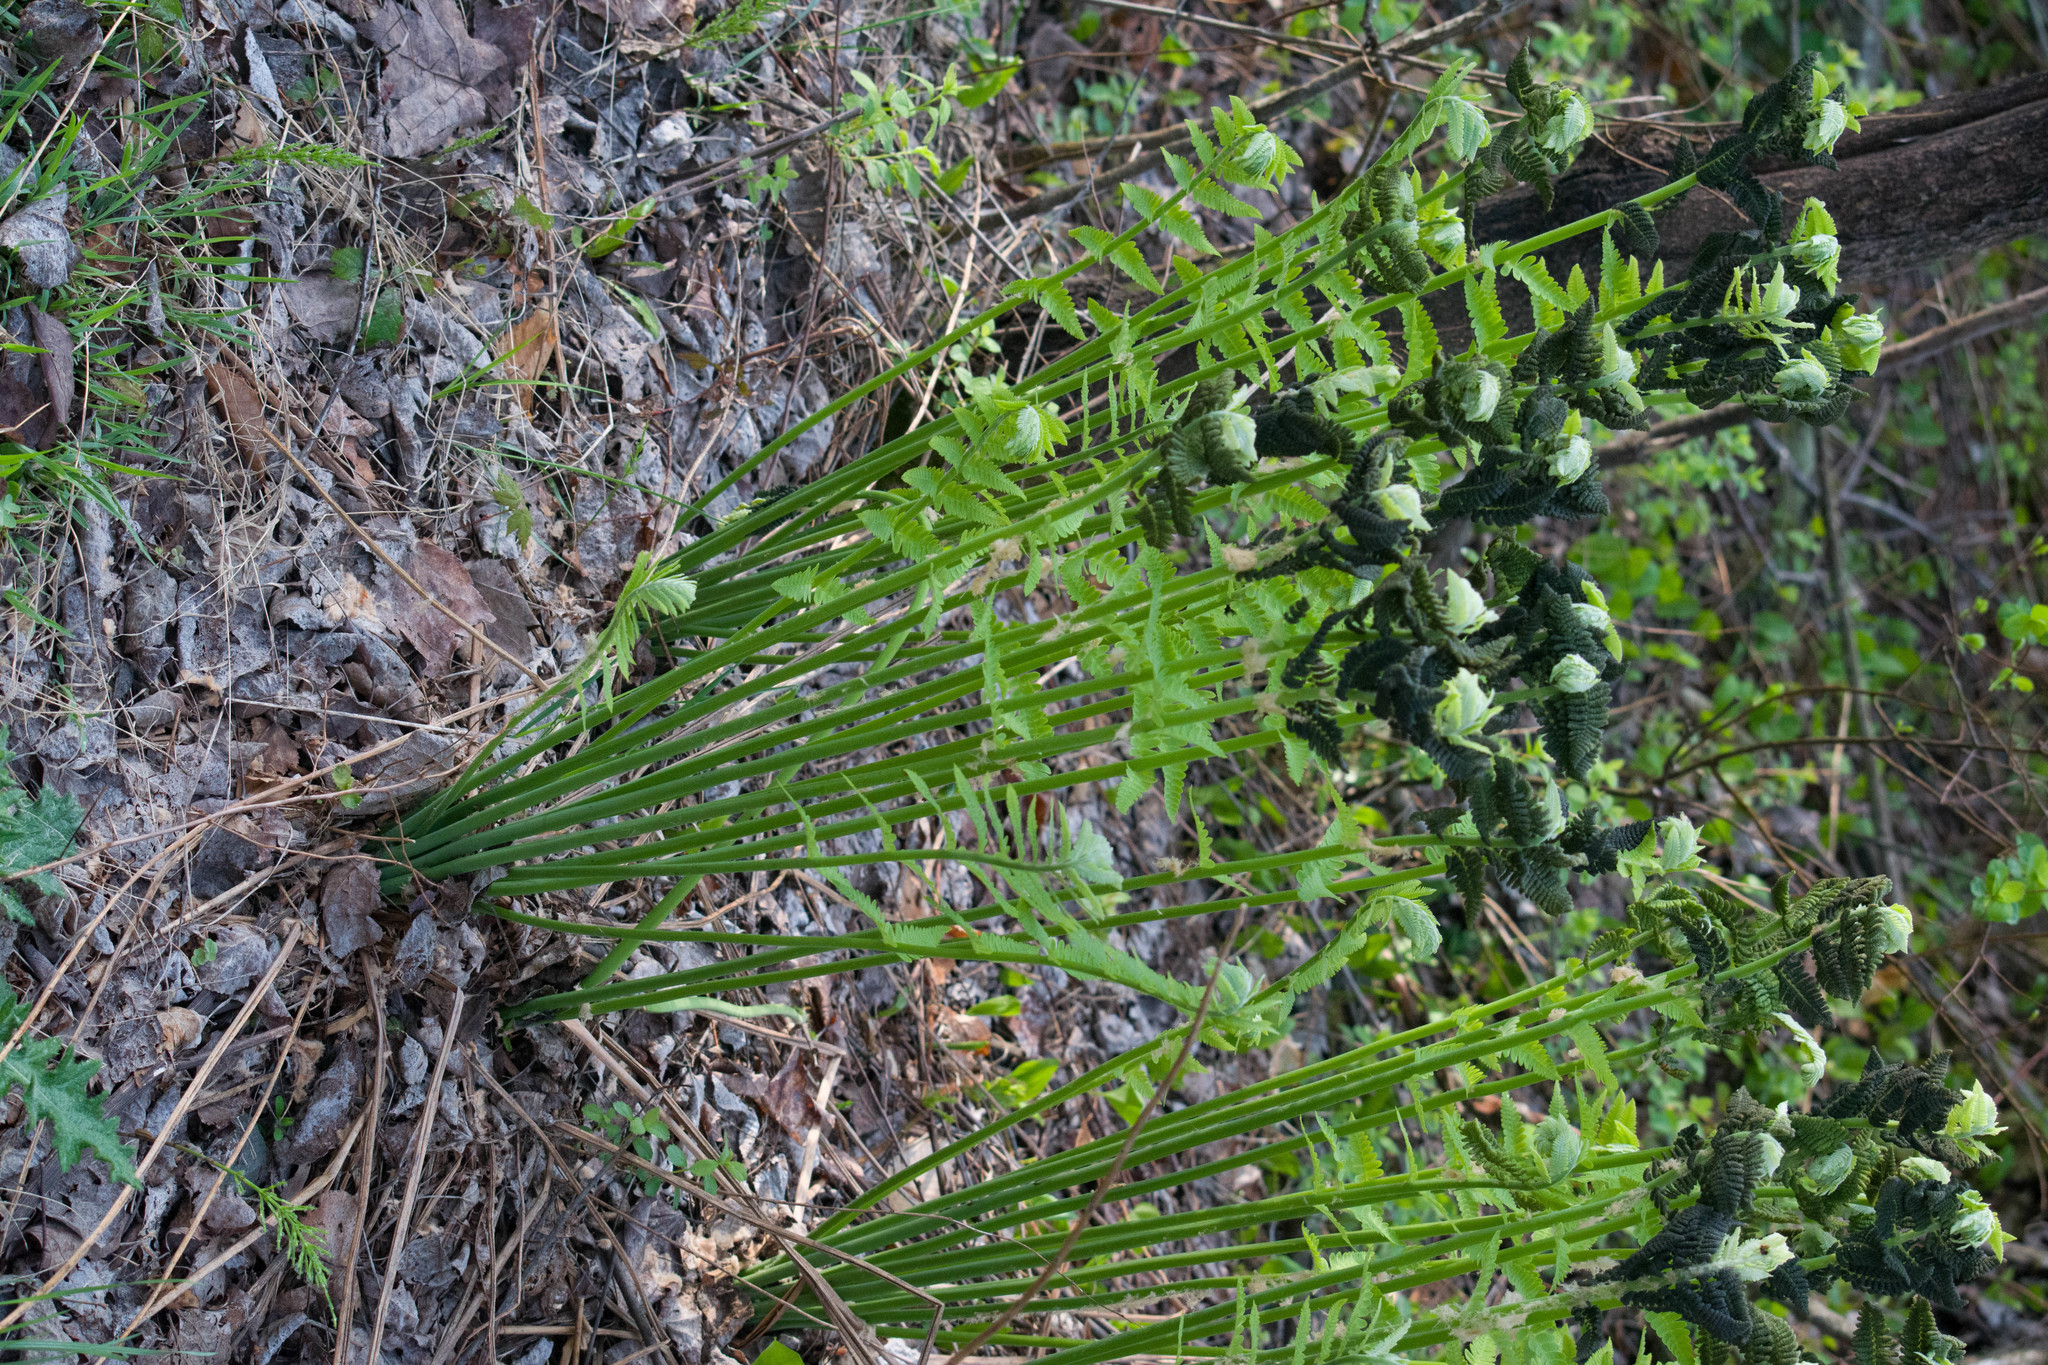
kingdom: Plantae
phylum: Tracheophyta
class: Polypodiopsida
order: Osmundales
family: Osmundaceae
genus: Claytosmunda
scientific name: Claytosmunda claytoniana
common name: Clayton's fern
